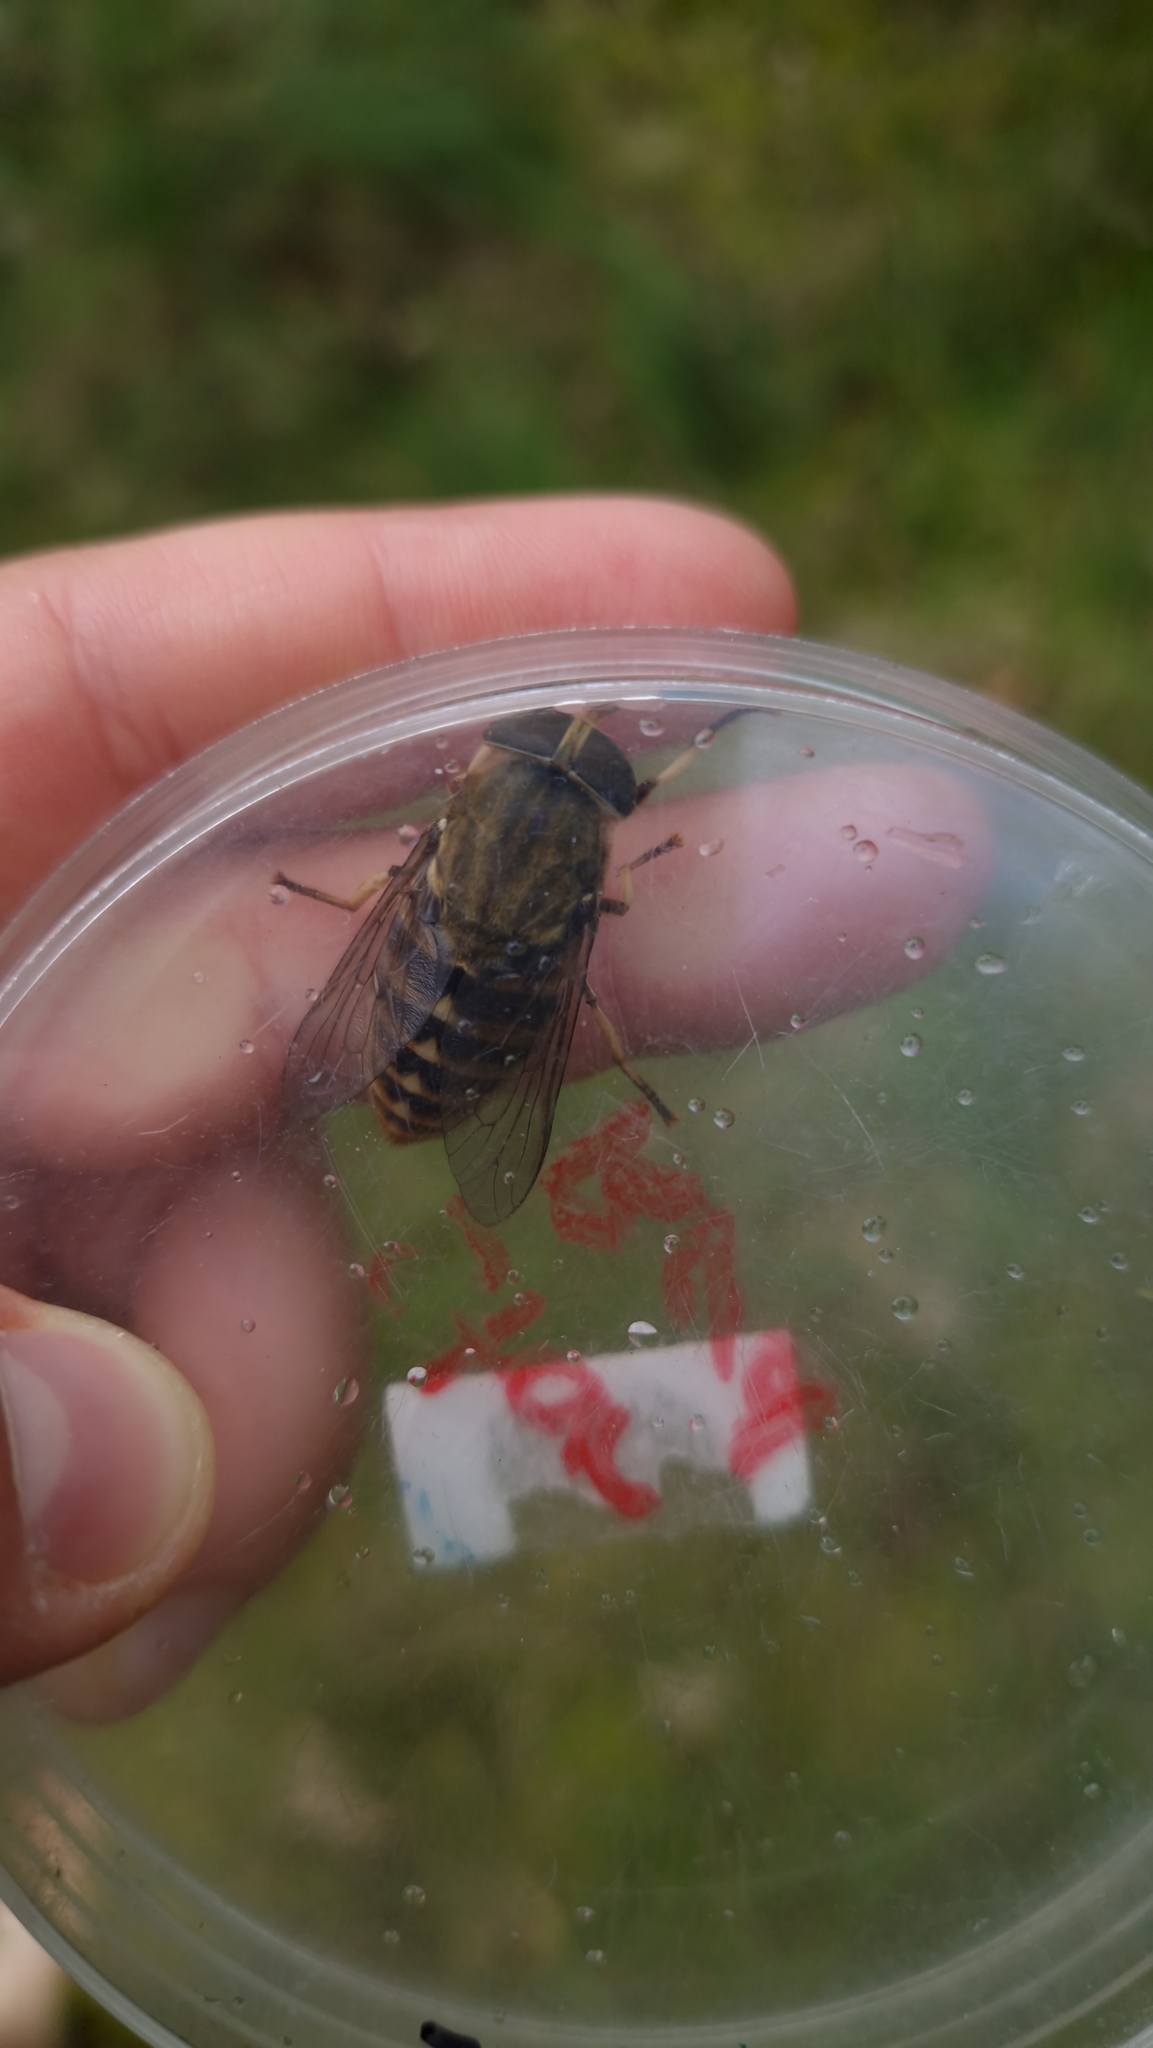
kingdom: Animalia
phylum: Arthropoda
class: Insecta
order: Diptera
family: Tabanidae
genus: Tabanus
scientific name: Tabanus sudeticus
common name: Dark giant horsefly
